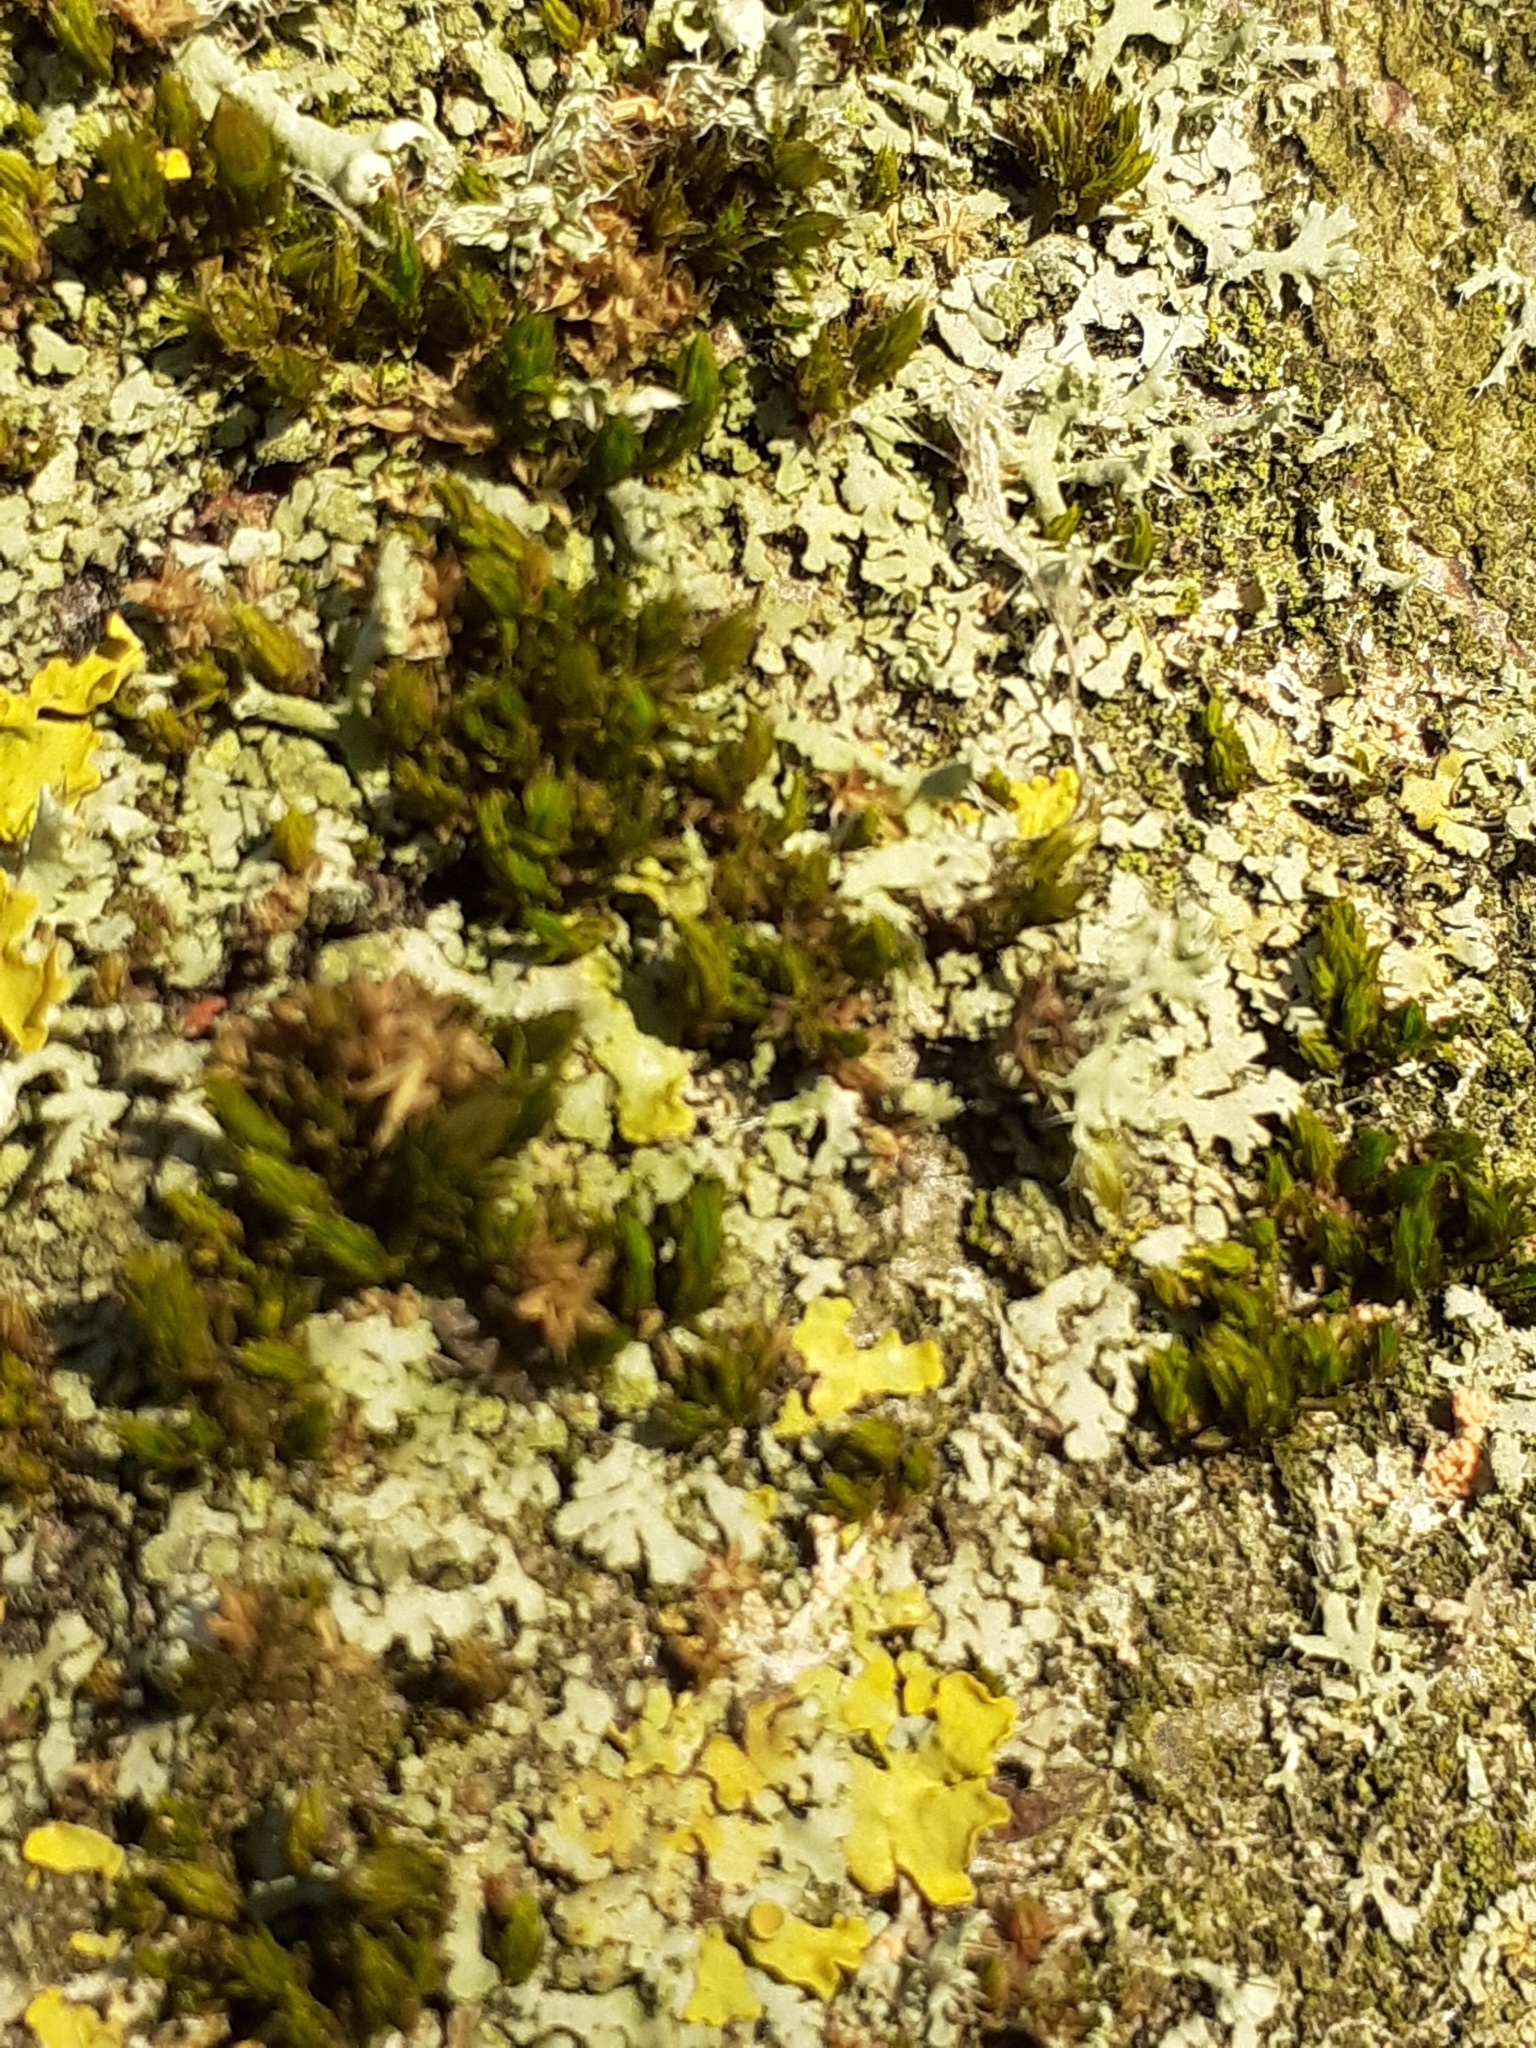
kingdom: Plantae
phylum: Bryophyta
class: Bryopsida
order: Orthotrichales
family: Orthotrichaceae
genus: Lewinskya
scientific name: Lewinskya affinis
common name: Wood bristle-moss
